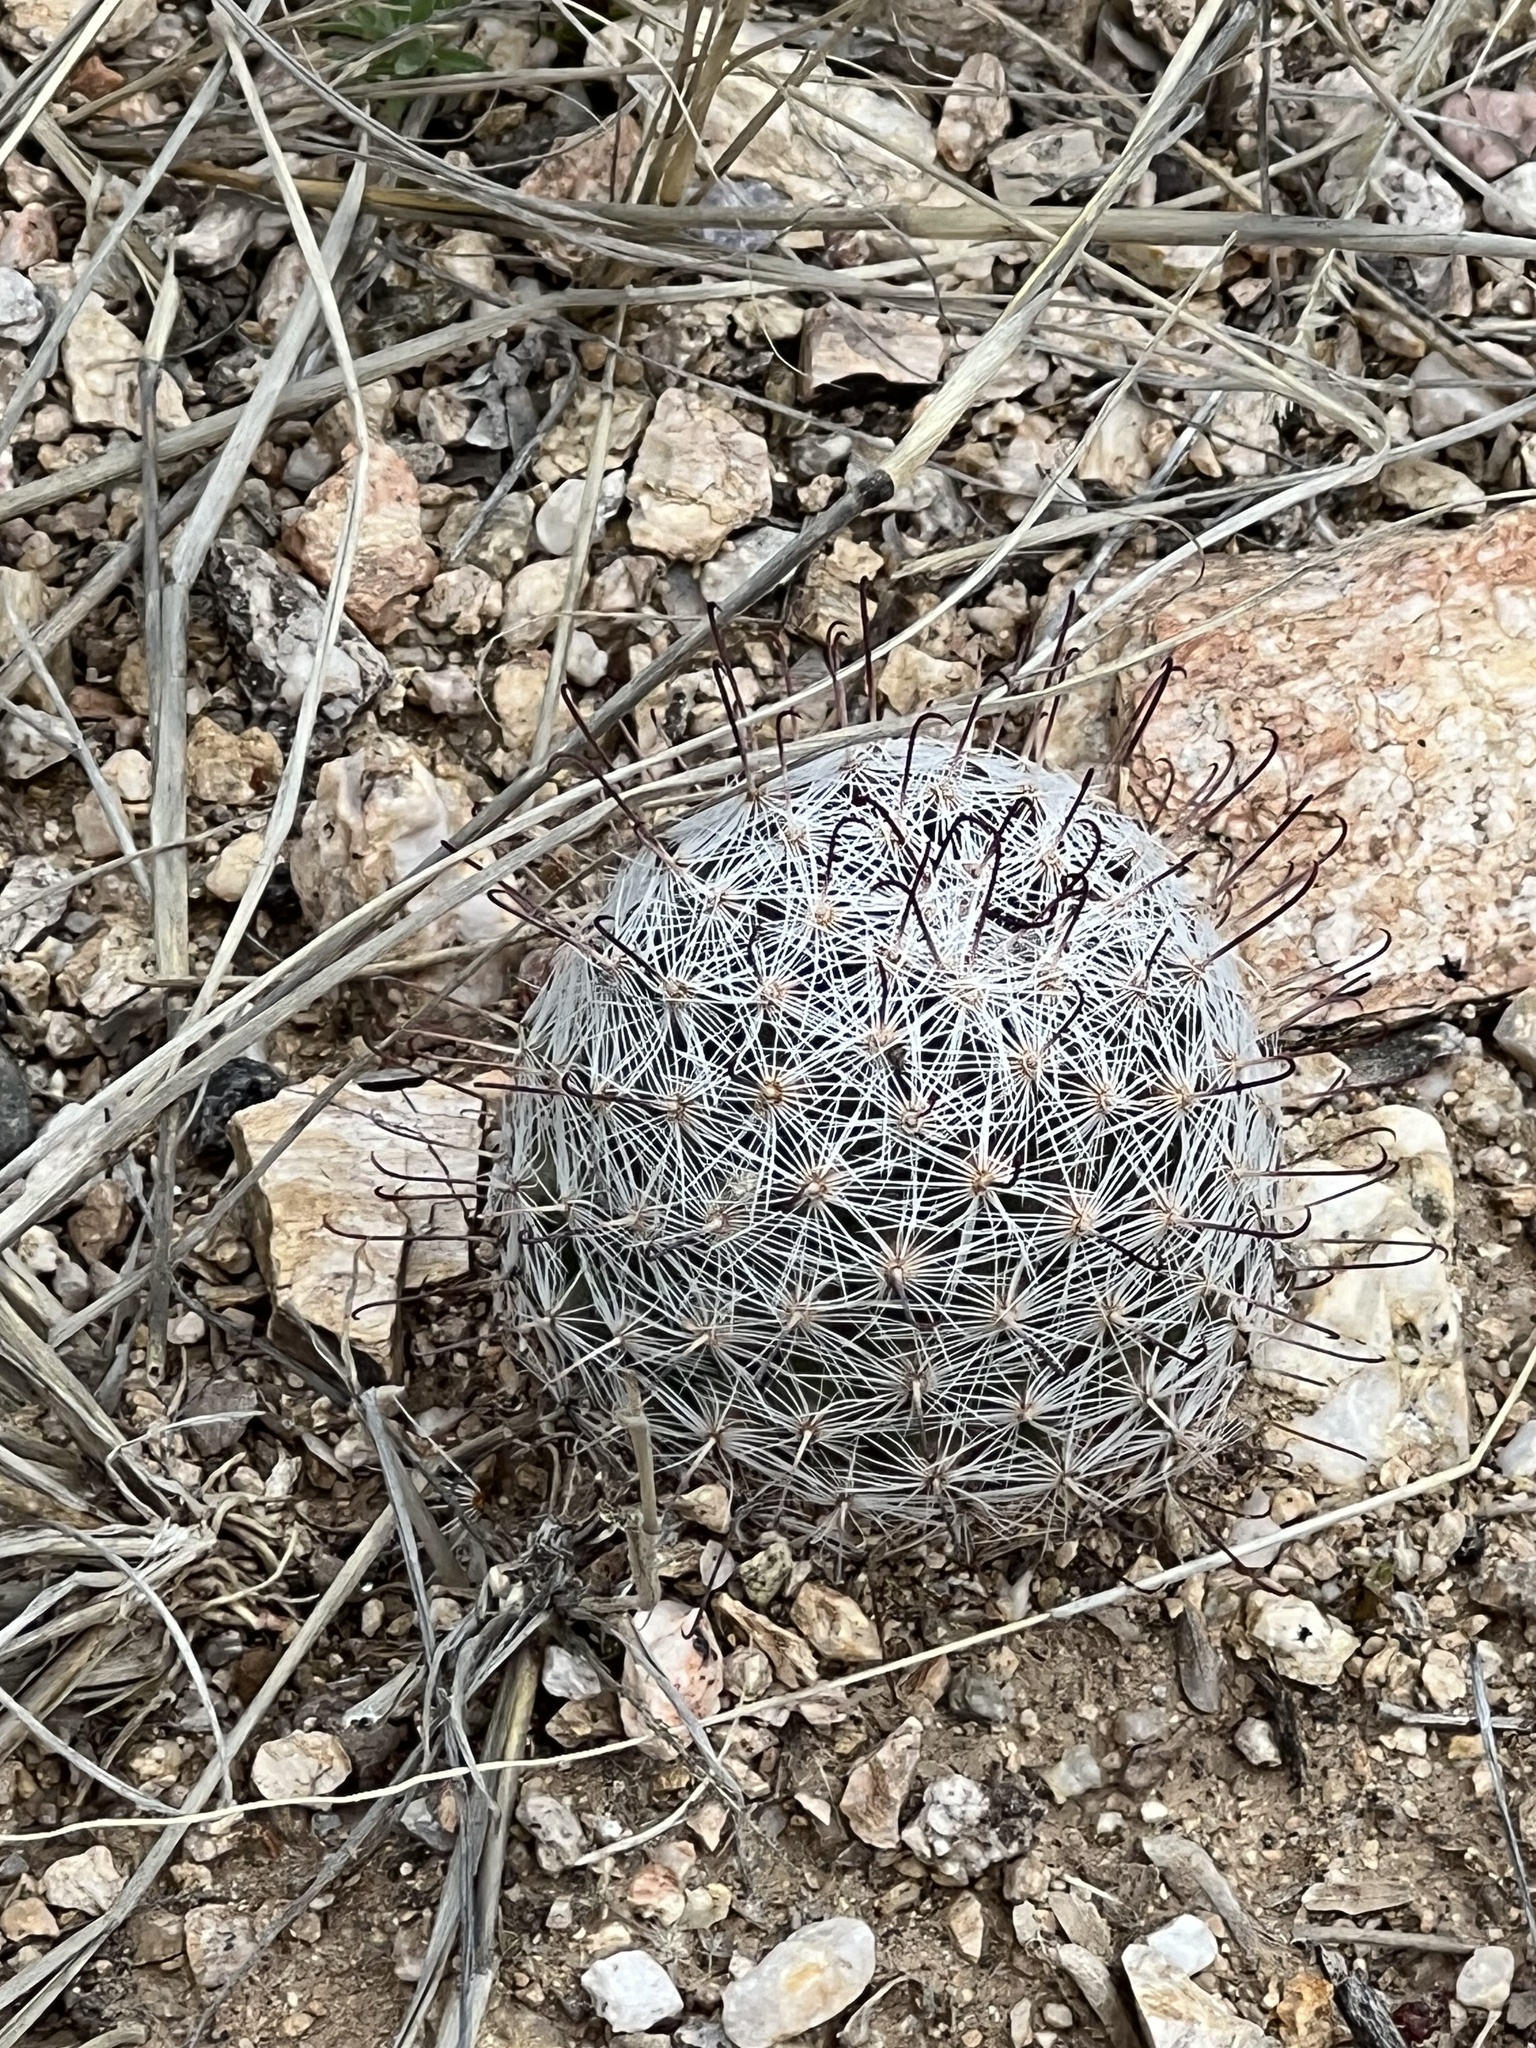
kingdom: Plantae
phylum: Tracheophyta
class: Magnoliopsida
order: Caryophyllales
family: Cactaceae
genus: Cochemiea
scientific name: Cochemiea grahamii
